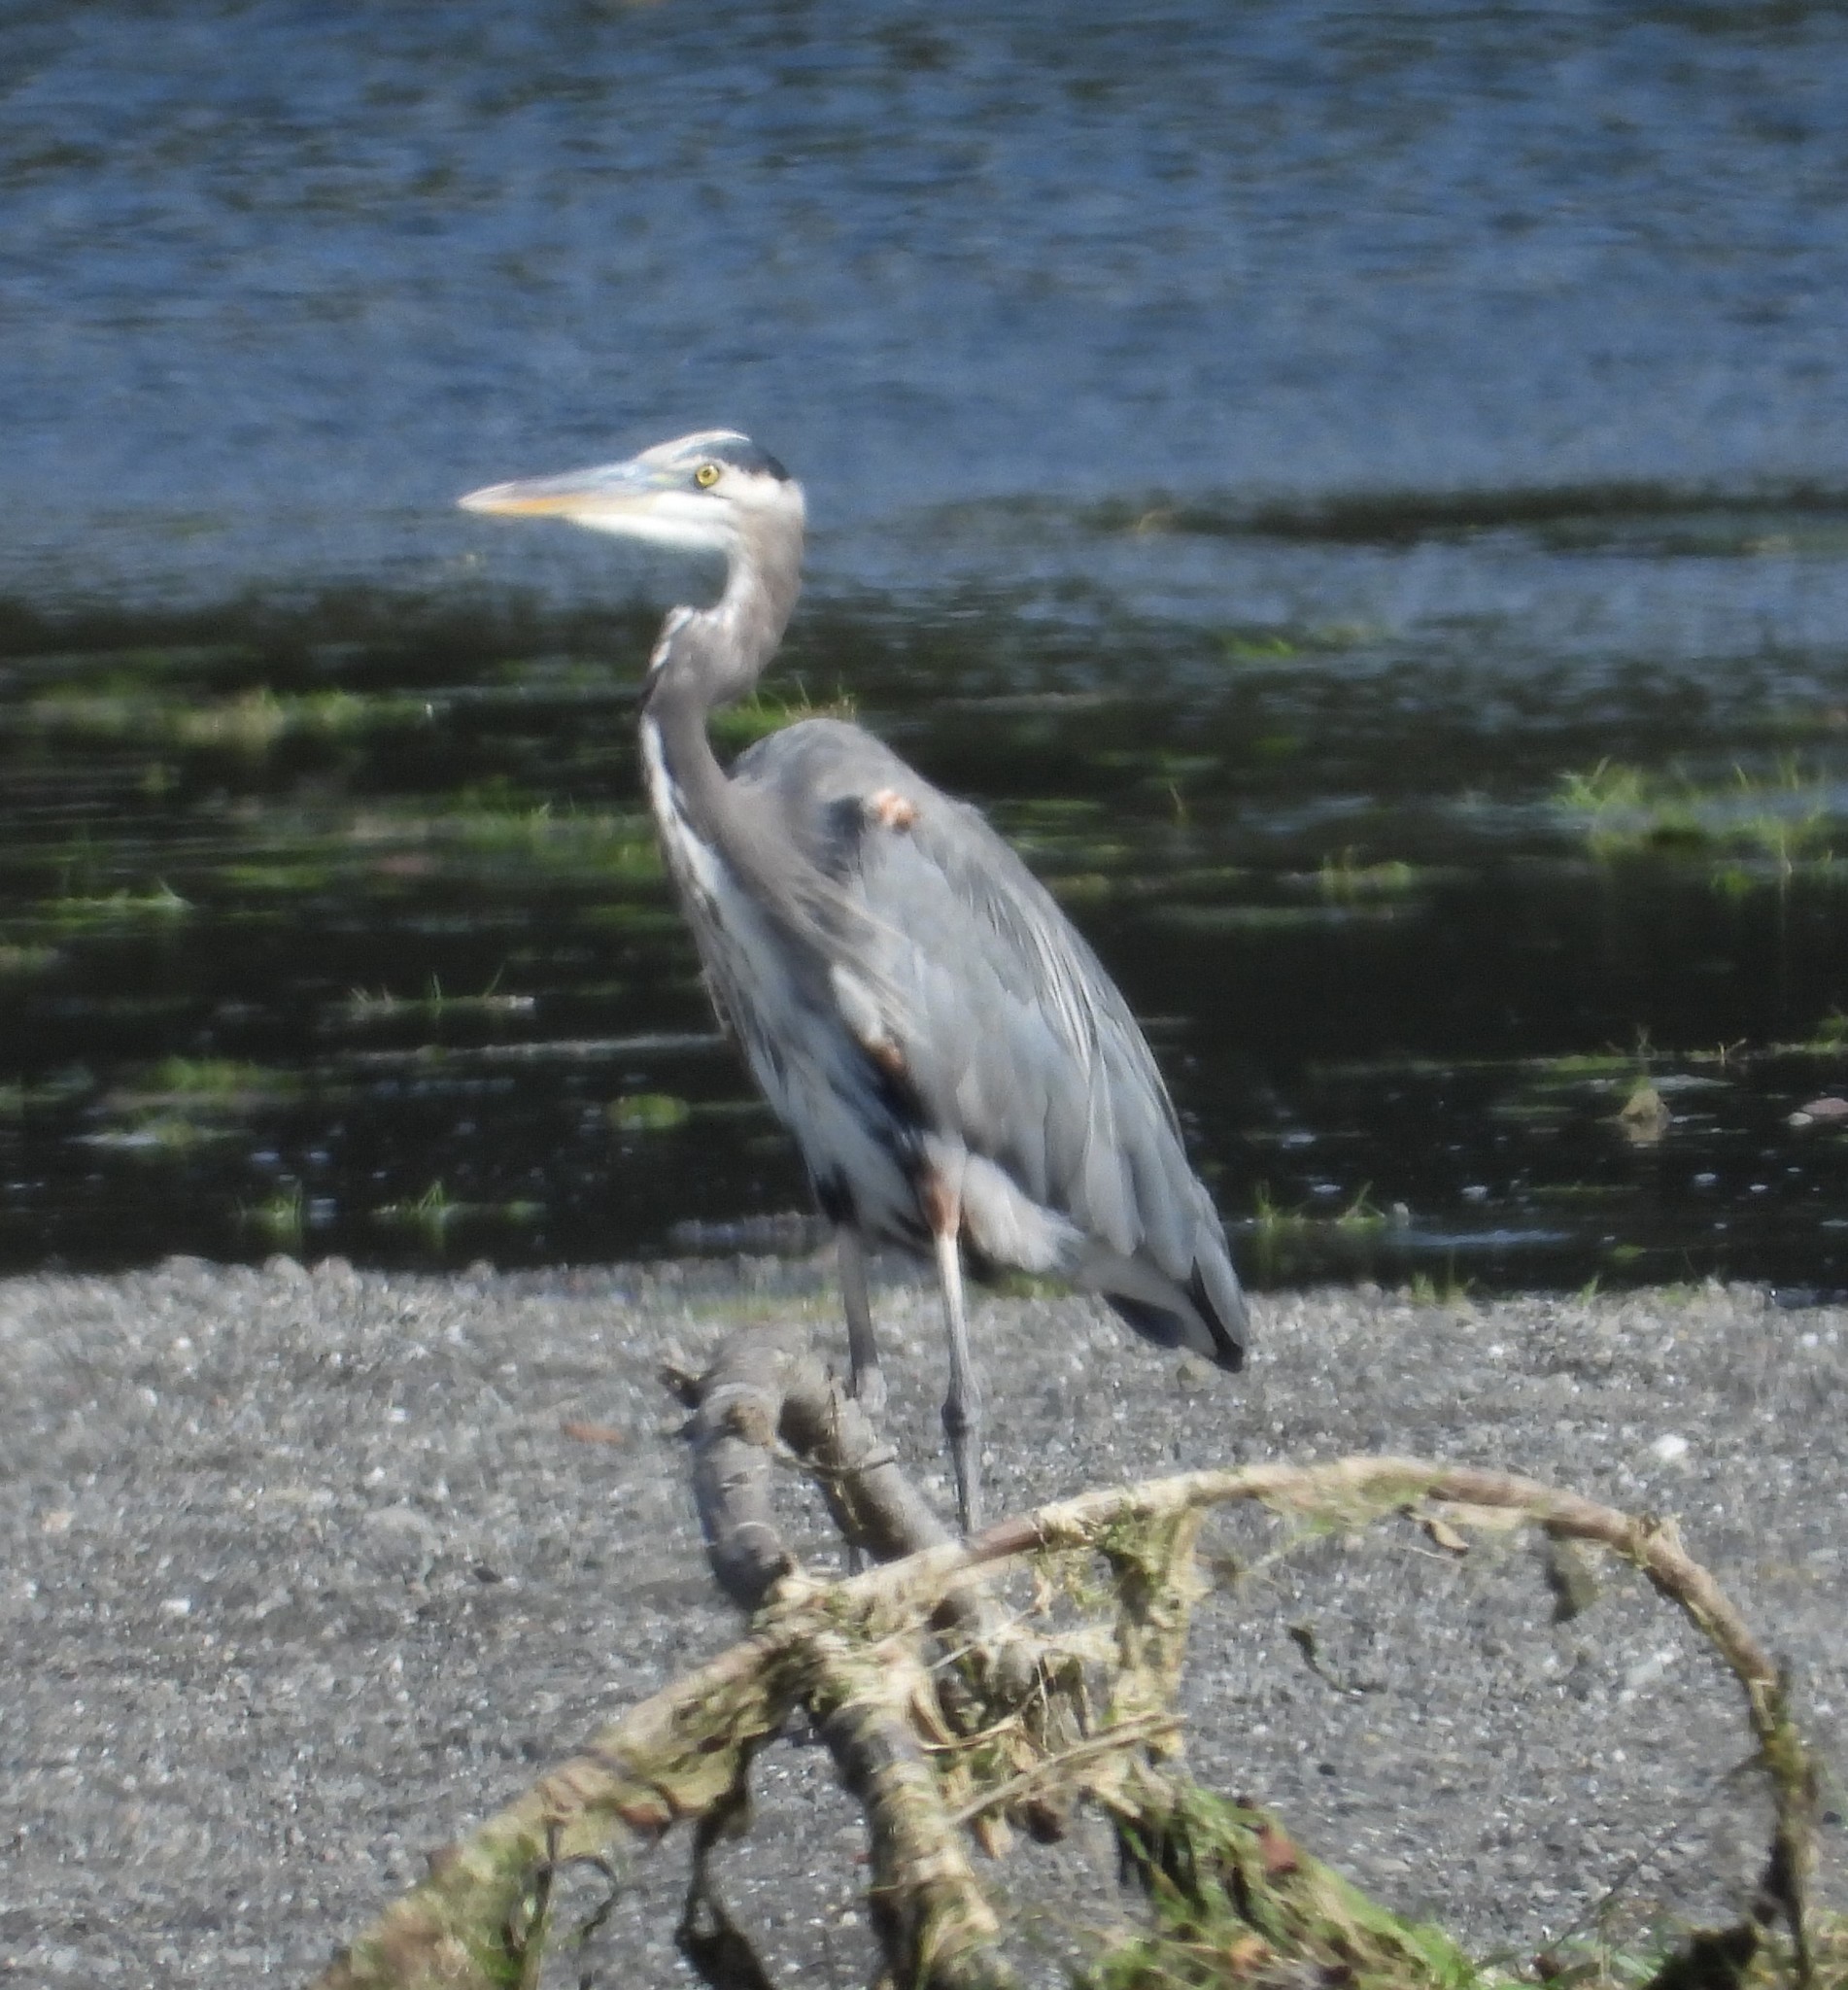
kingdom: Animalia
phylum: Chordata
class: Aves
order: Pelecaniformes
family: Ardeidae
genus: Ardea
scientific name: Ardea herodias
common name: Great blue heron
